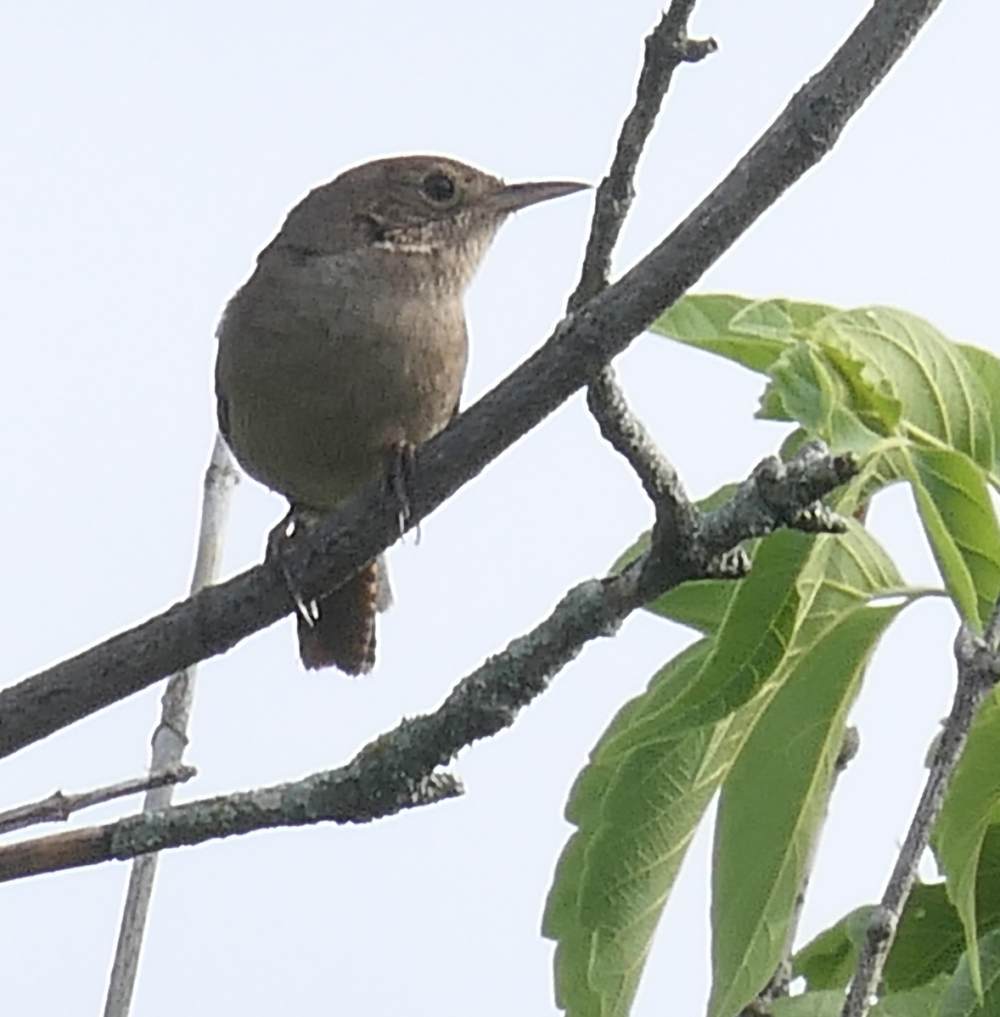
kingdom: Animalia
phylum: Chordata
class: Aves
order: Passeriformes
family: Troglodytidae
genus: Troglodytes
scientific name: Troglodytes aedon
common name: House wren
